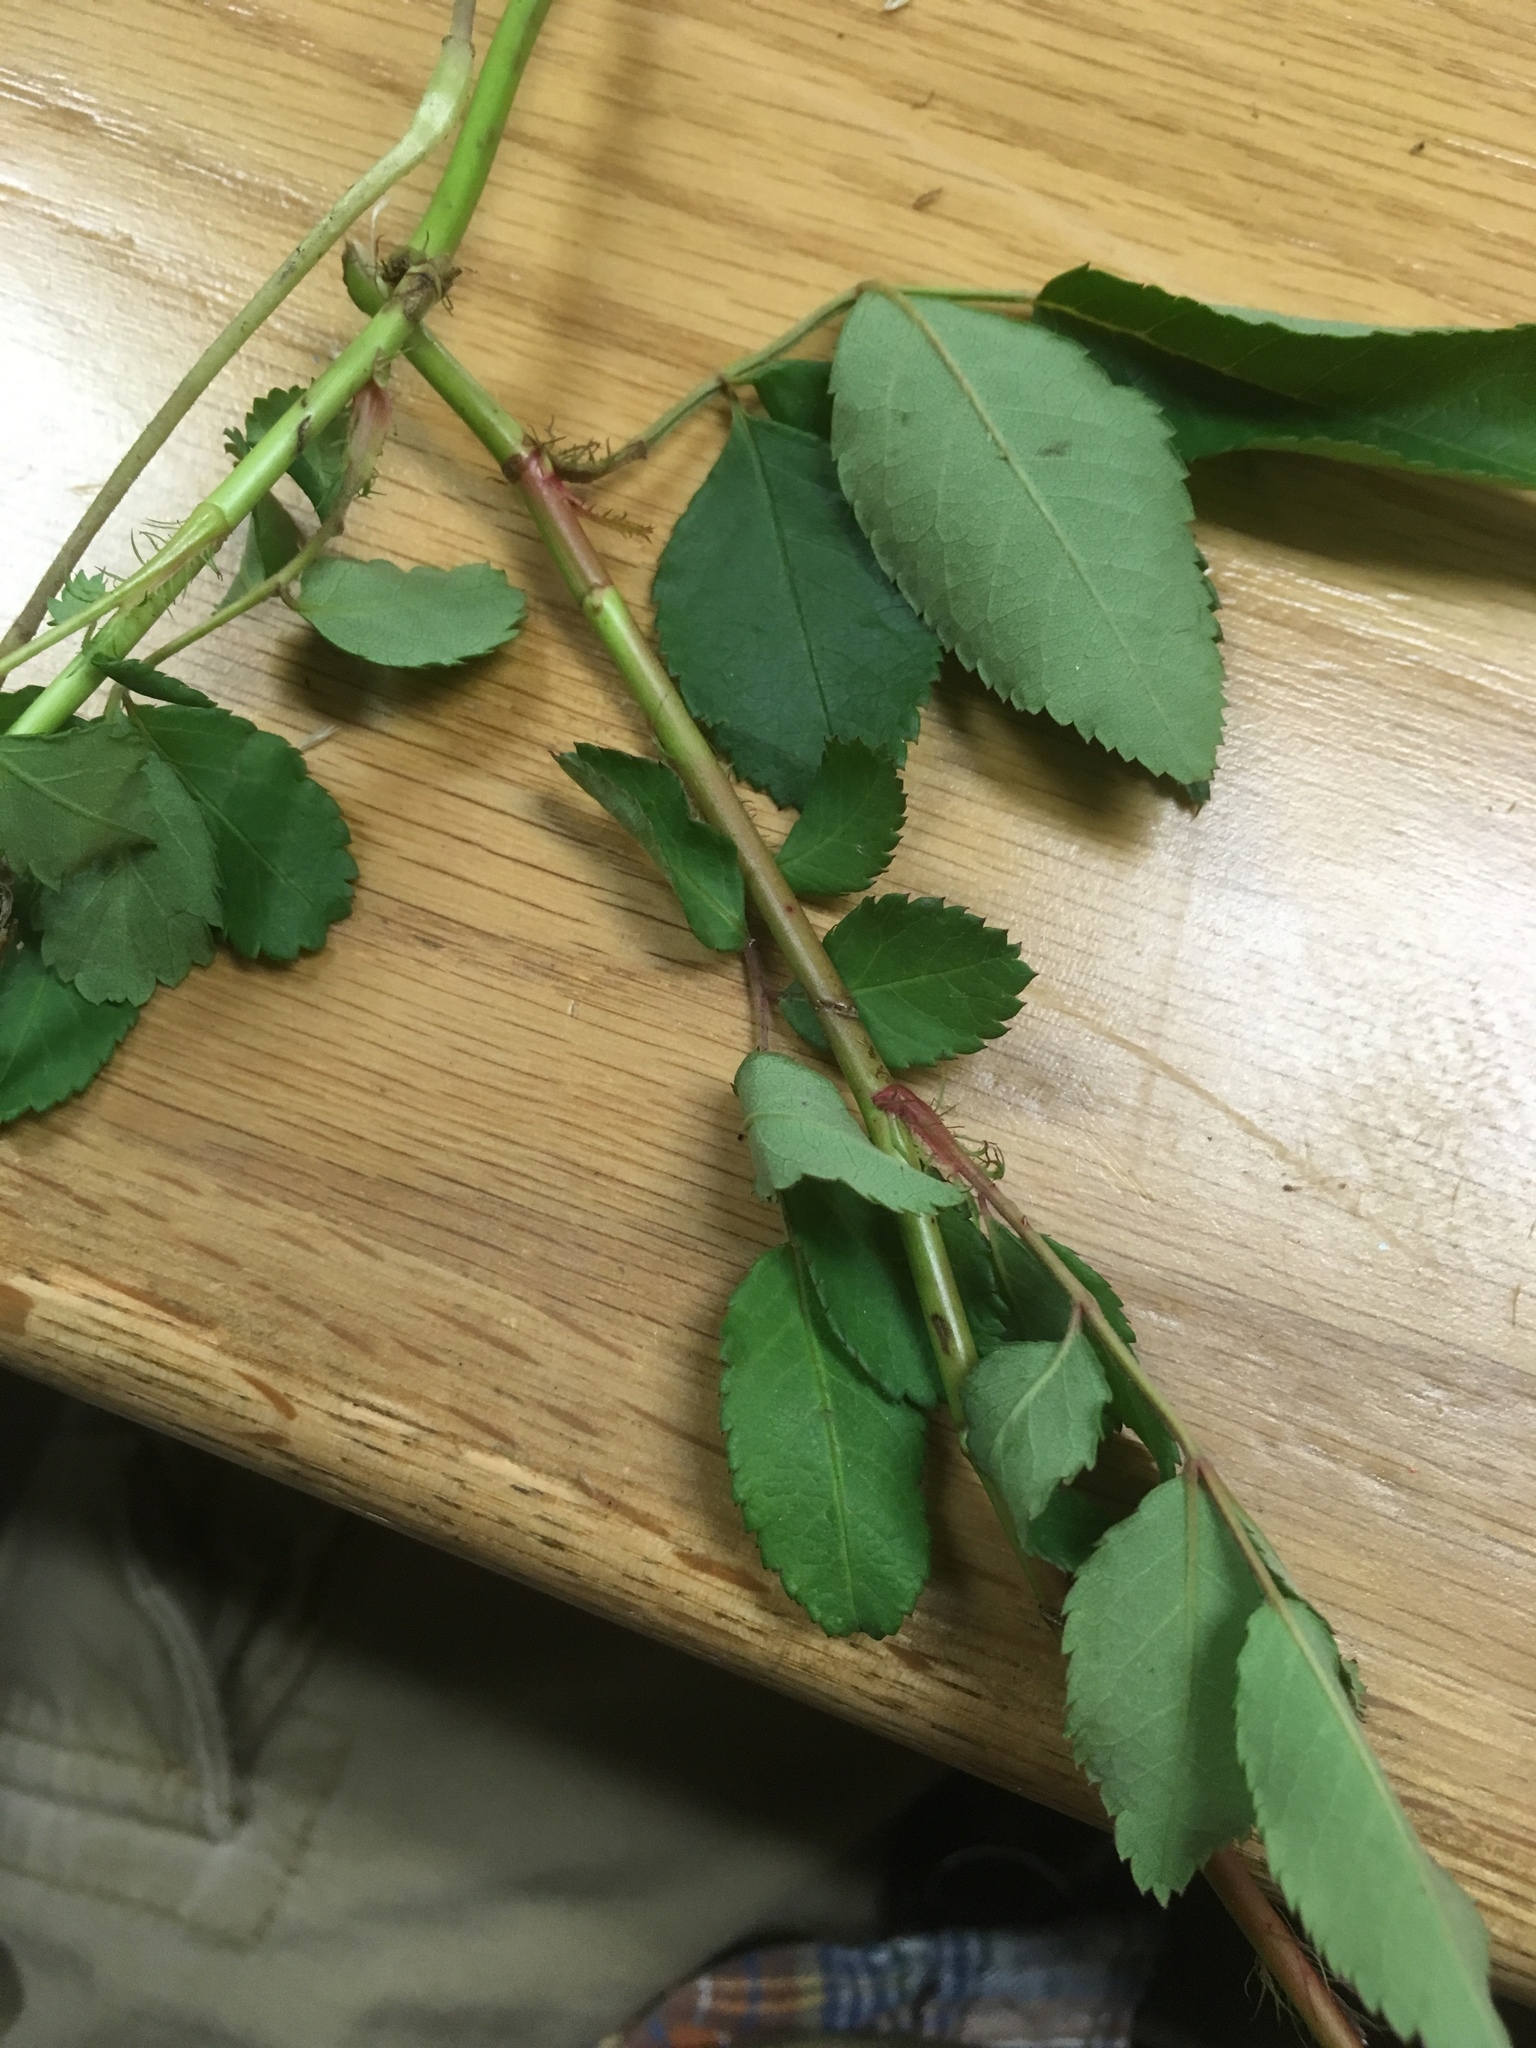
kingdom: Plantae
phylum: Tracheophyta
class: Magnoliopsida
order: Rosales
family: Rosaceae
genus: Rosa
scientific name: Rosa multiflora
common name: Multiflora rose
